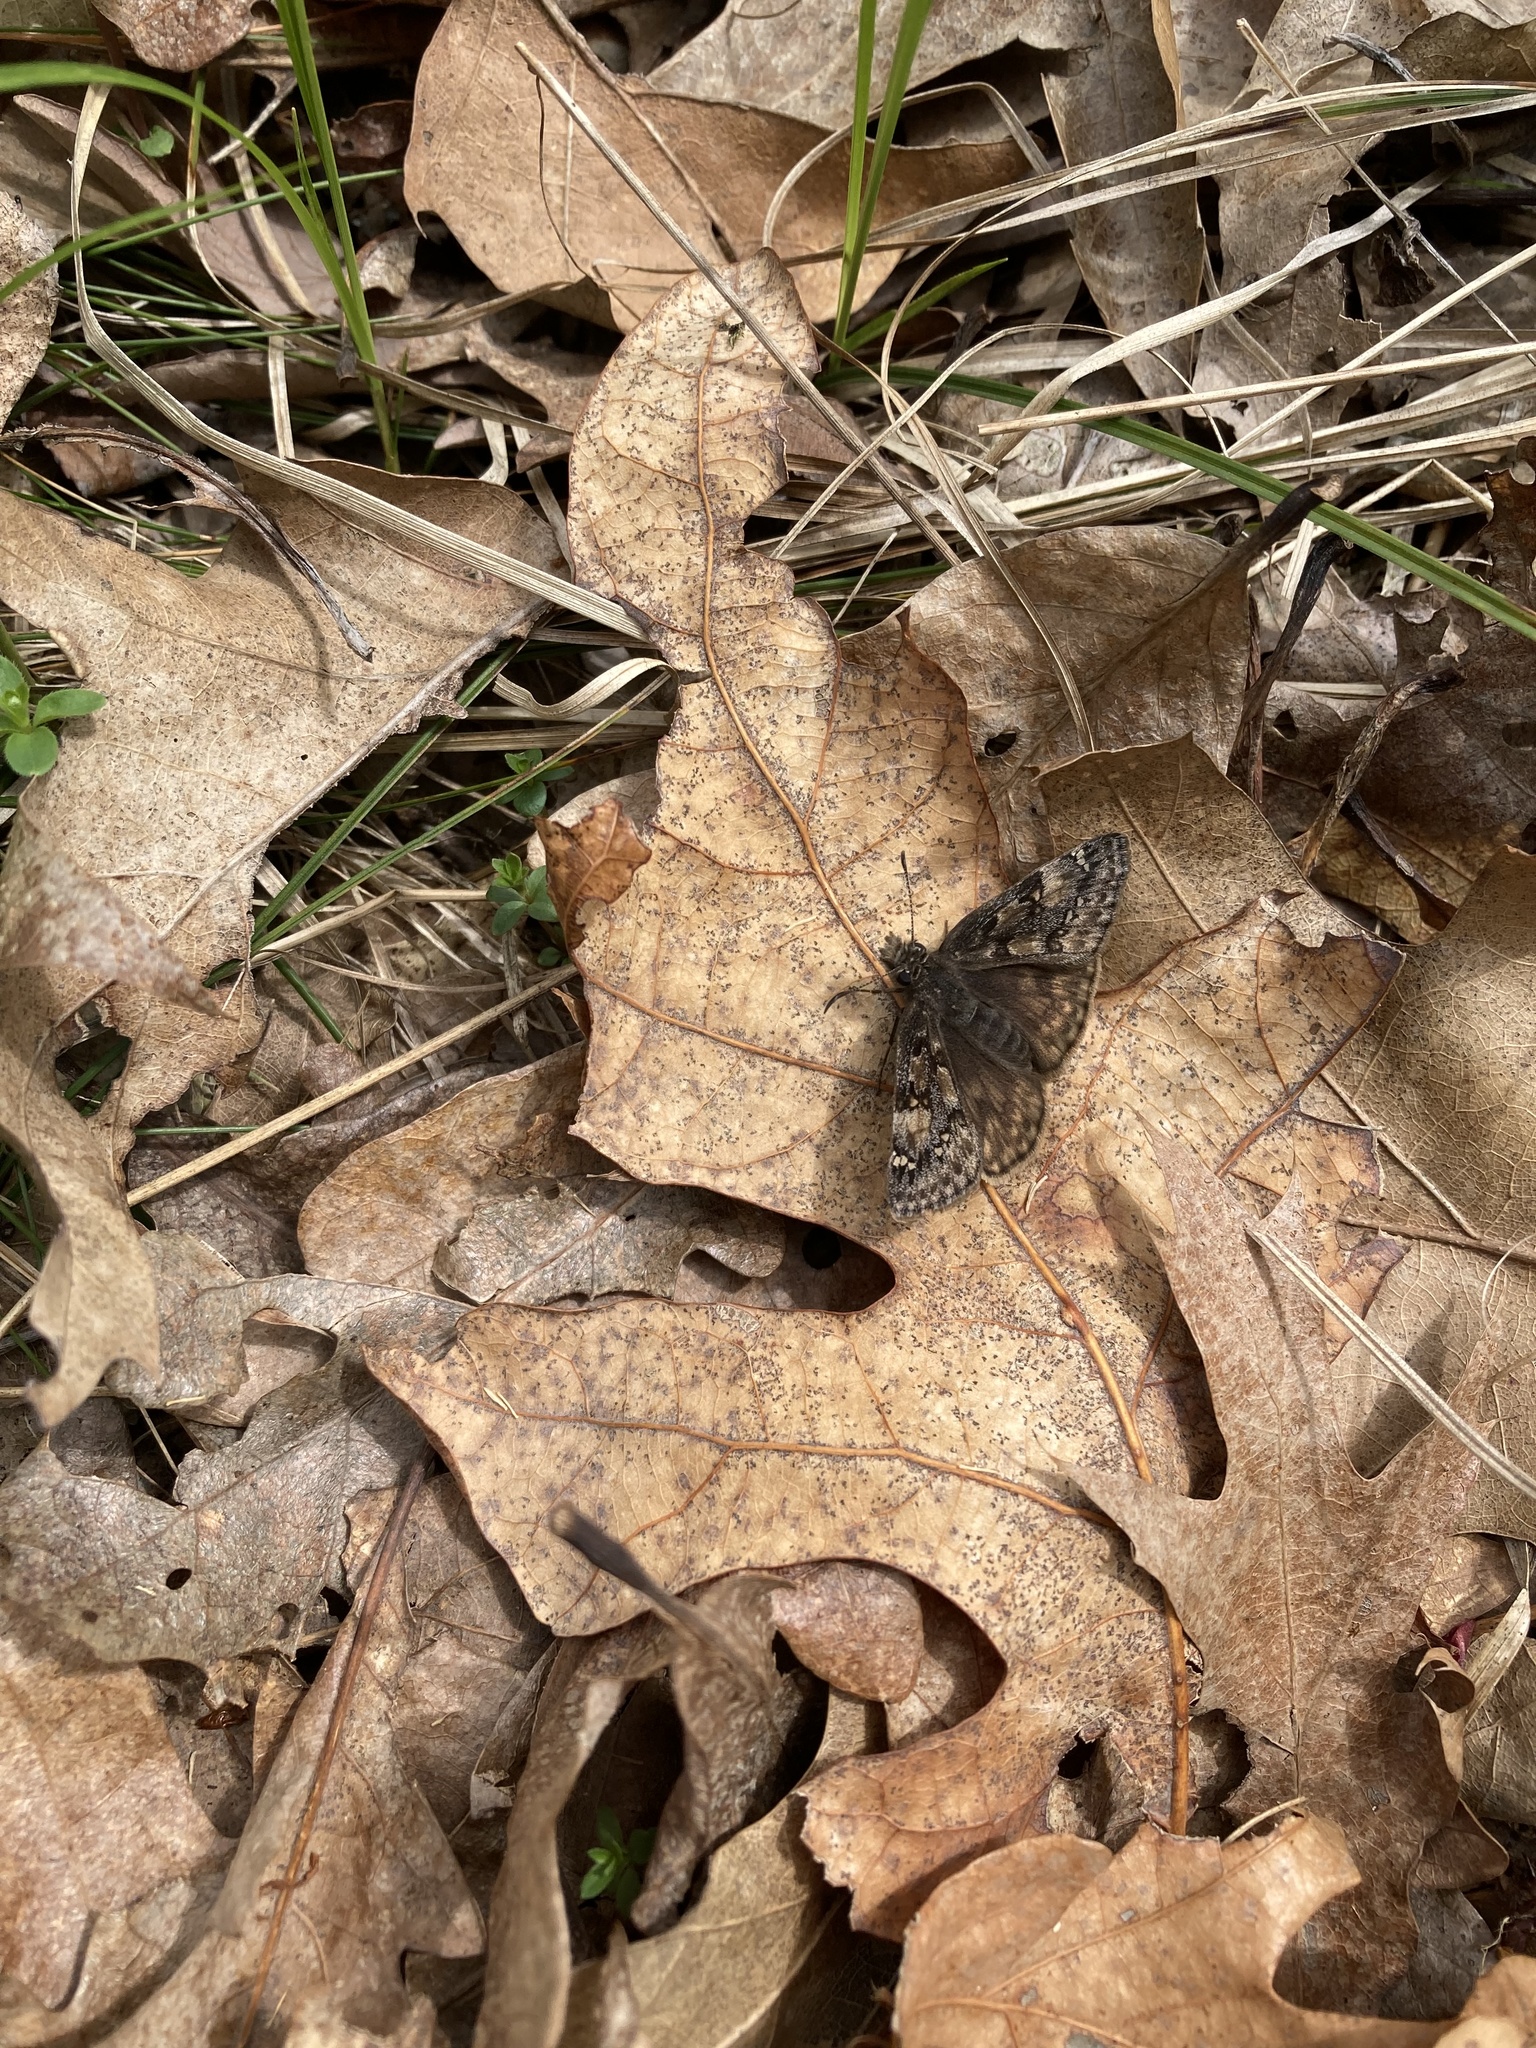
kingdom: Animalia
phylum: Arthropoda
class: Insecta
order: Lepidoptera
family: Hesperiidae
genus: Erynnis
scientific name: Erynnis juvenalis
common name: Juvenal's duskywing
